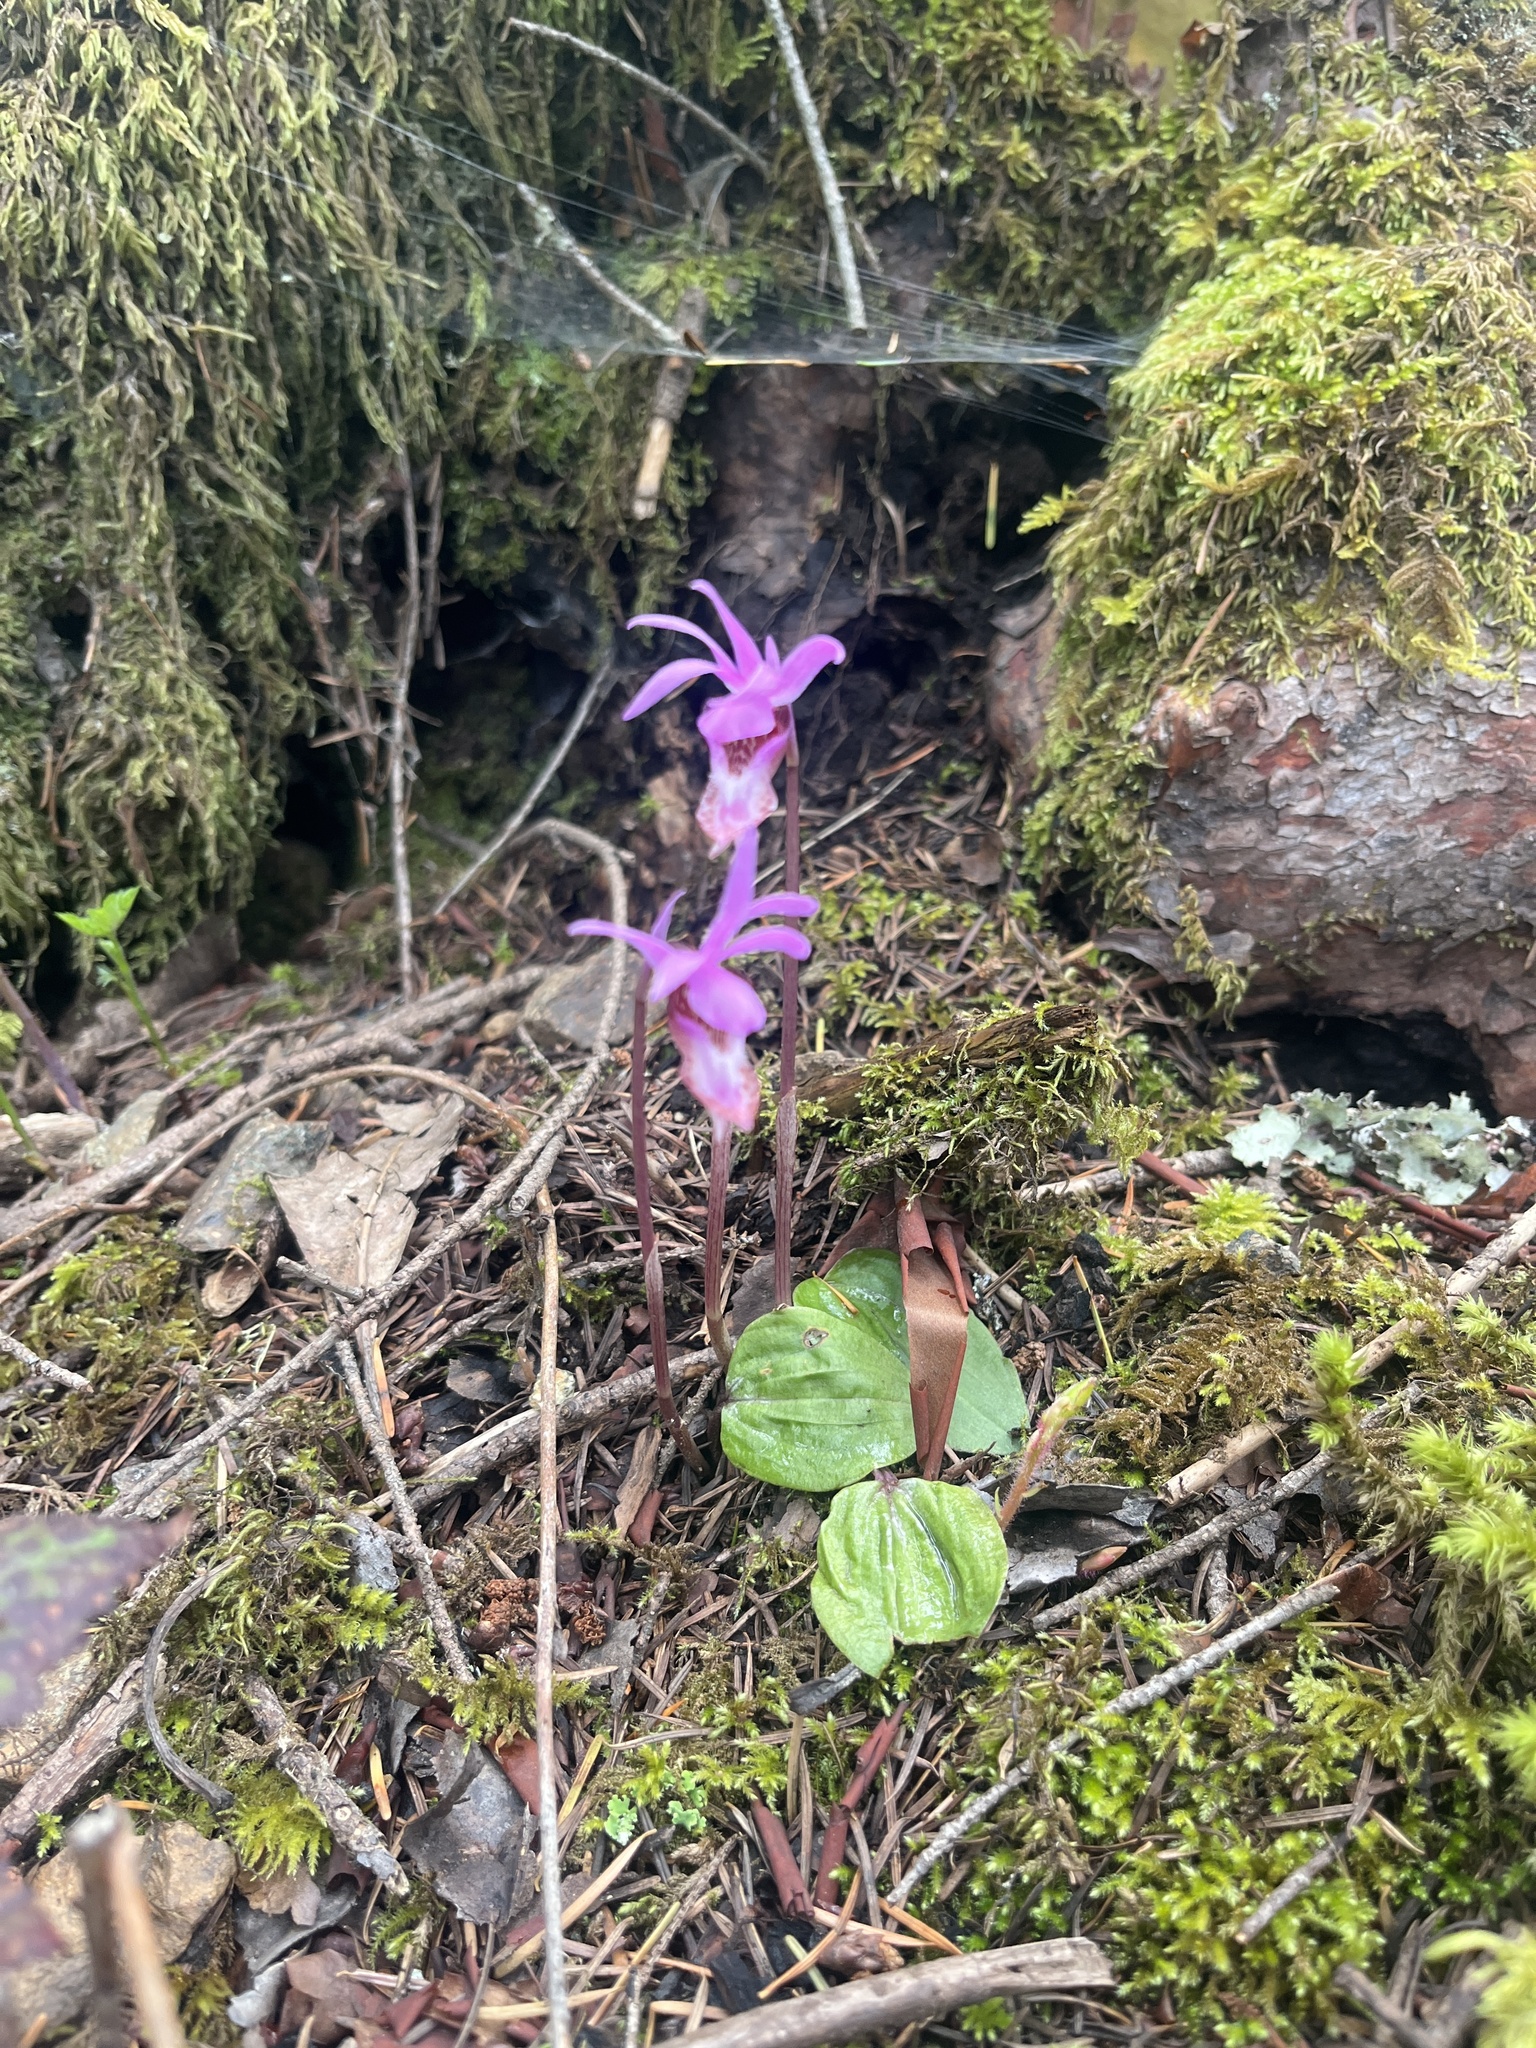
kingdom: Plantae
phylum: Tracheophyta
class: Liliopsida
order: Asparagales
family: Orchidaceae
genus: Calypso
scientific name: Calypso bulbosa
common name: Calypso
